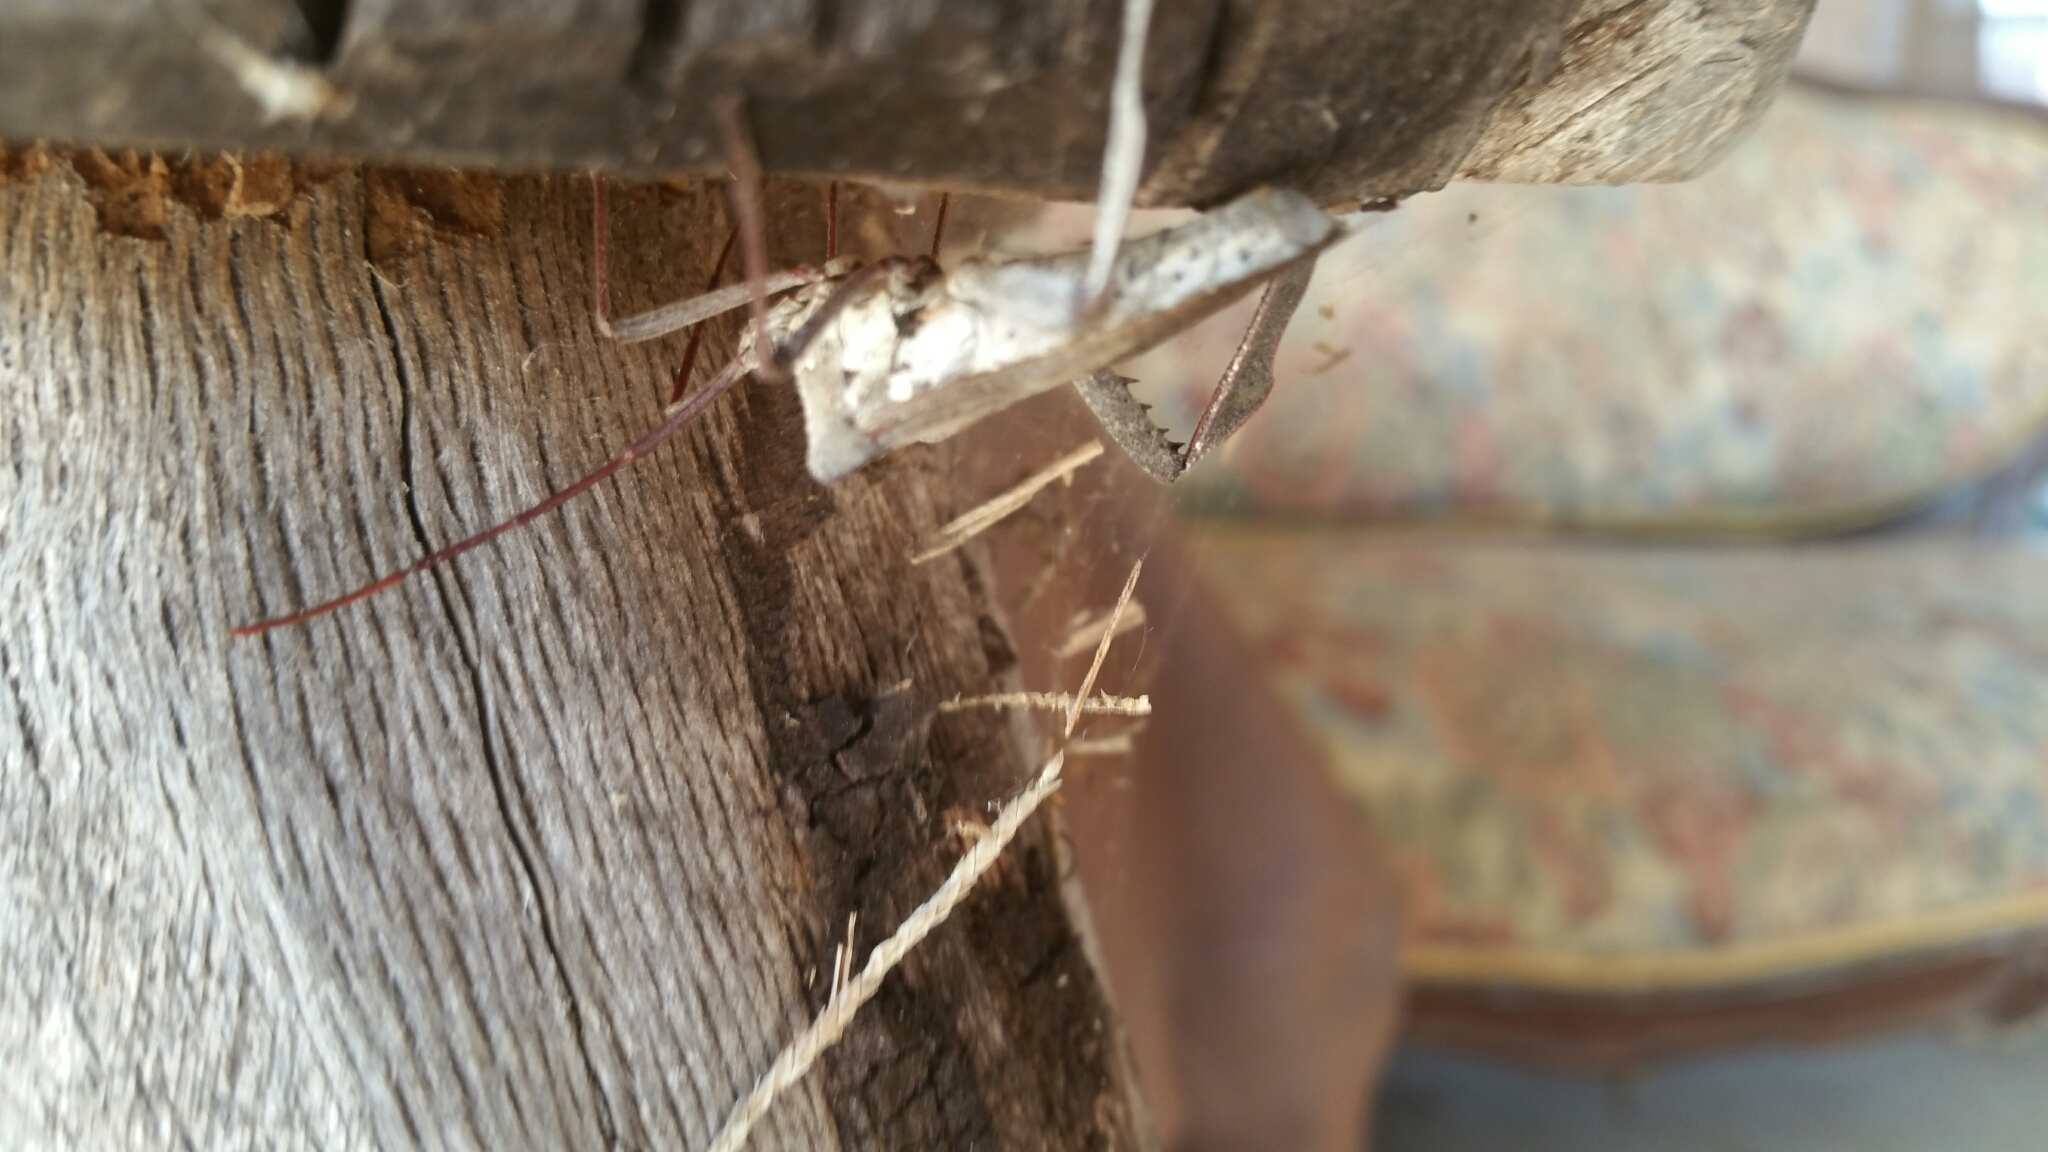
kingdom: Animalia
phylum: Arthropoda
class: Insecta
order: Hemiptera
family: Coreidae
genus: Acanthocephala
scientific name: Acanthocephala declivis
